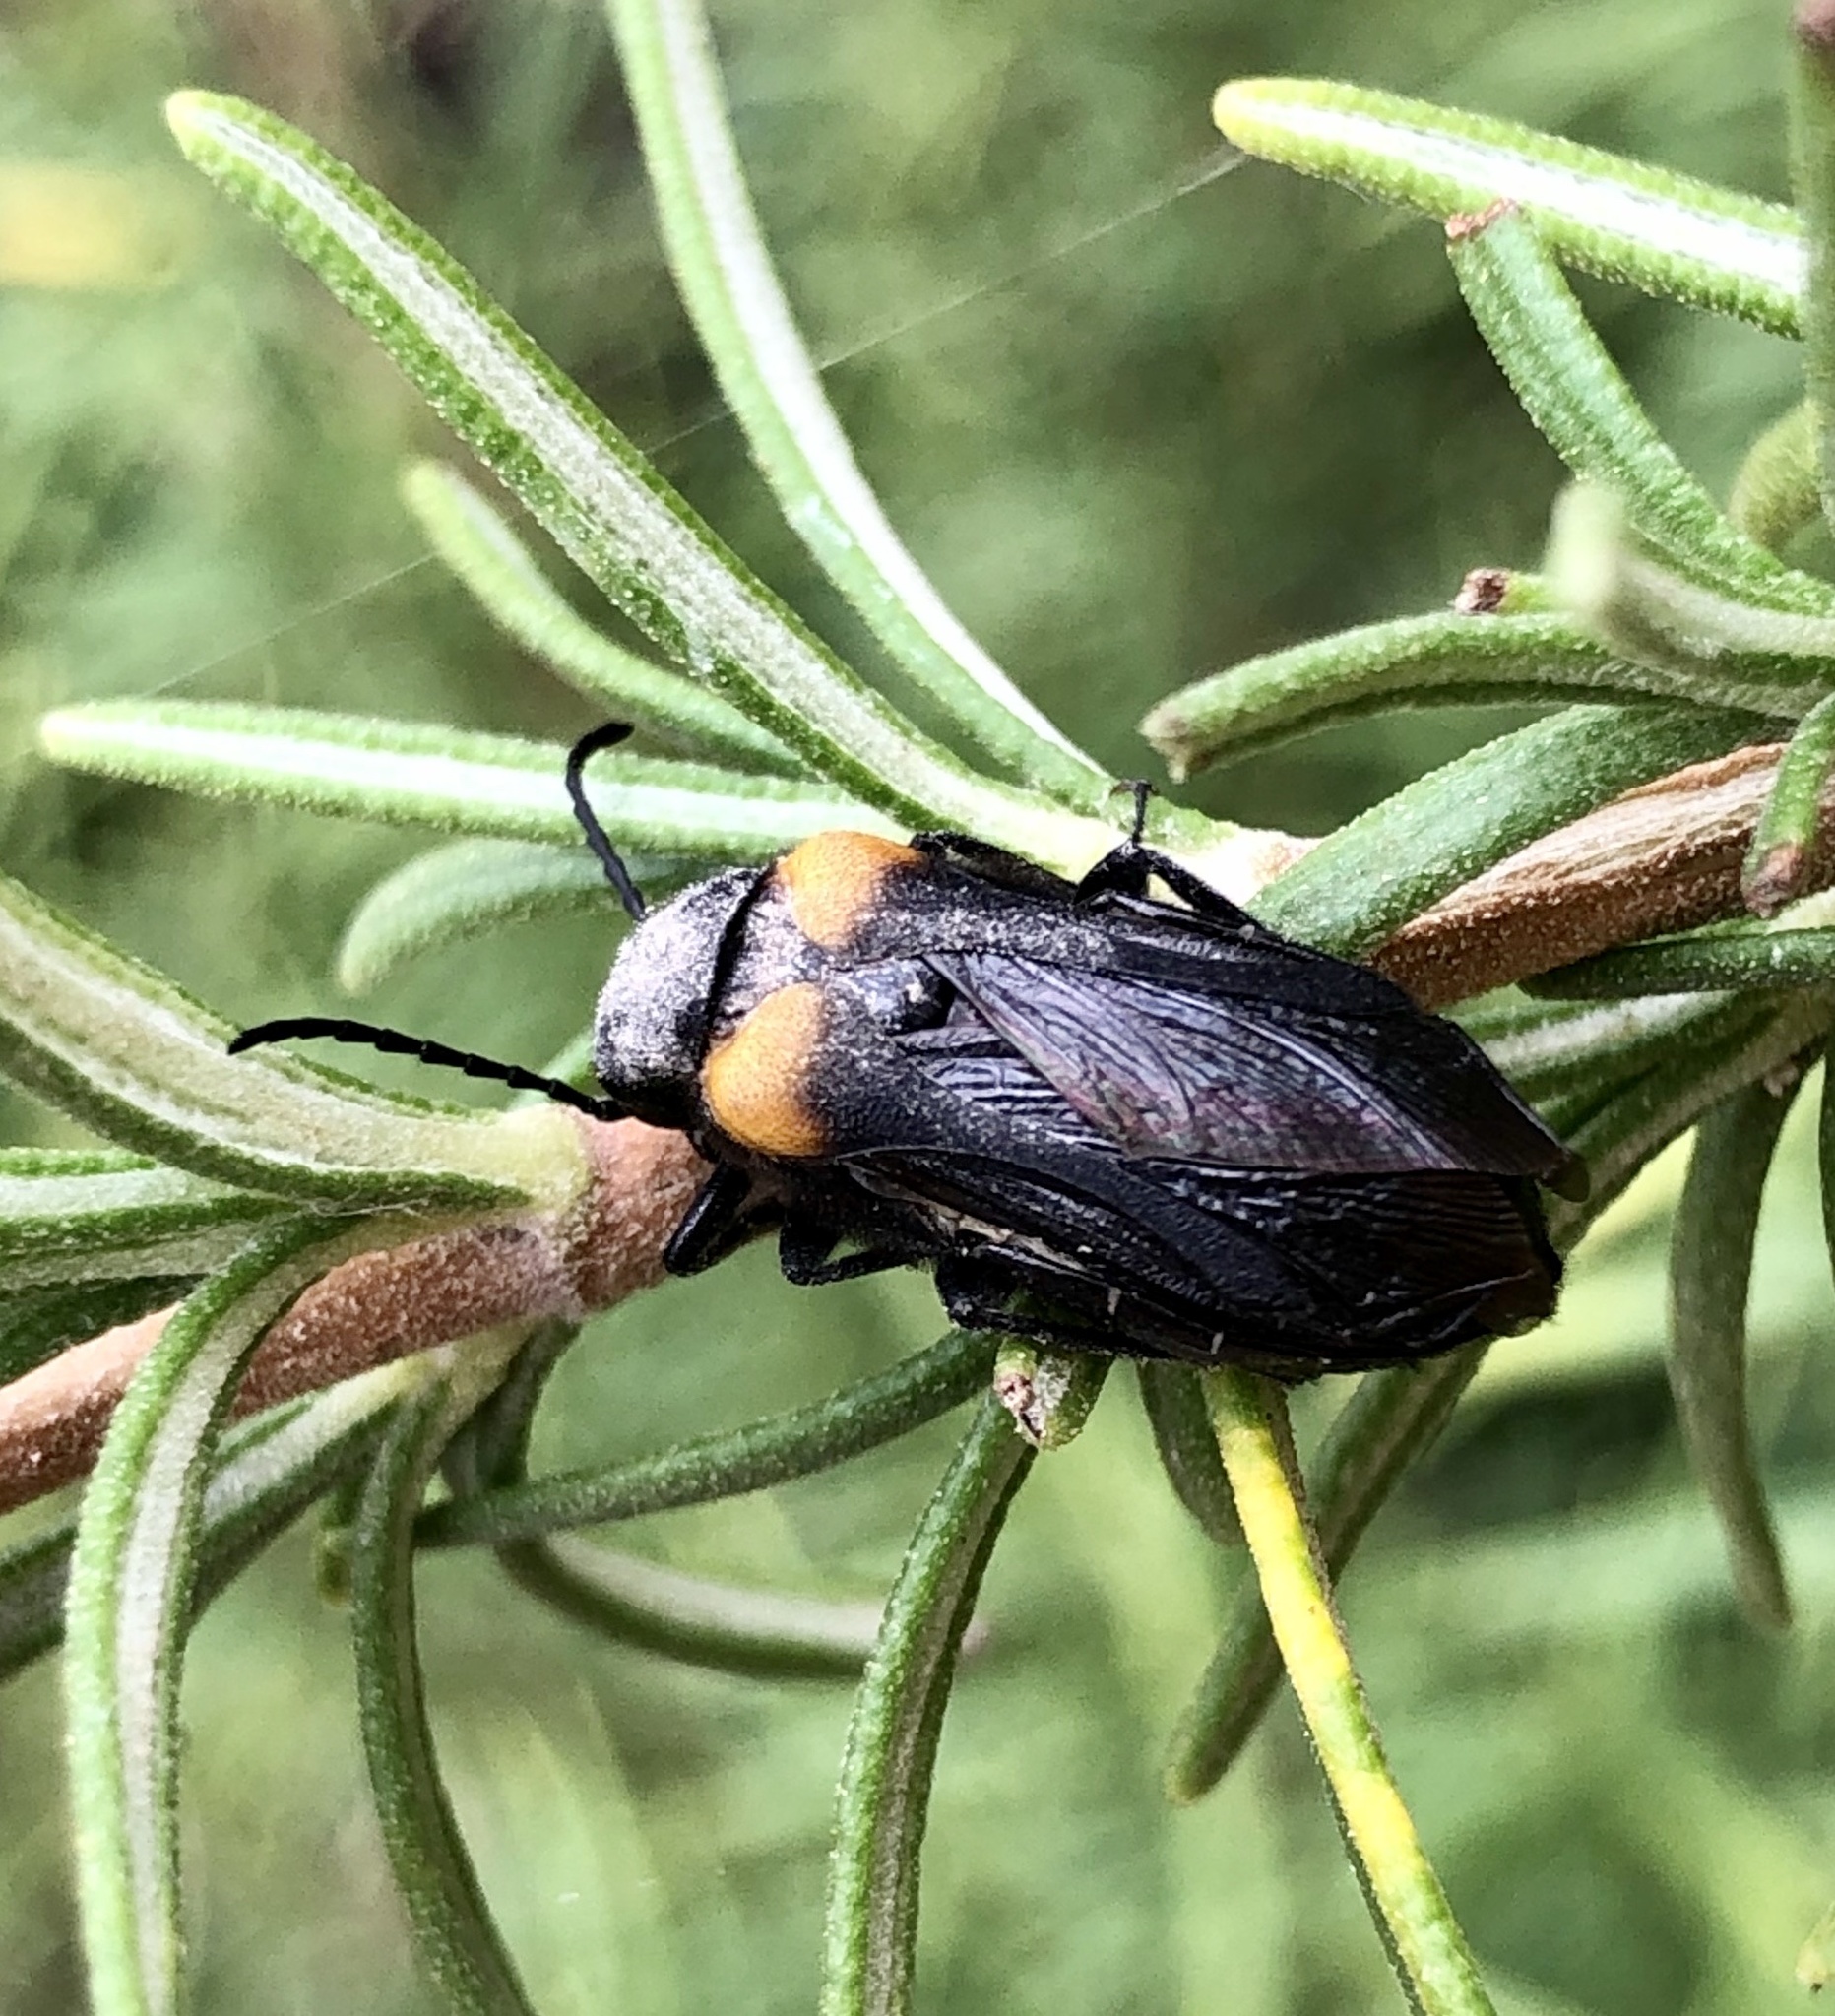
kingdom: Animalia
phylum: Arthropoda
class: Insecta
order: Coleoptera
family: Meloidae
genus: Sitaris
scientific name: Sitaris muralis
